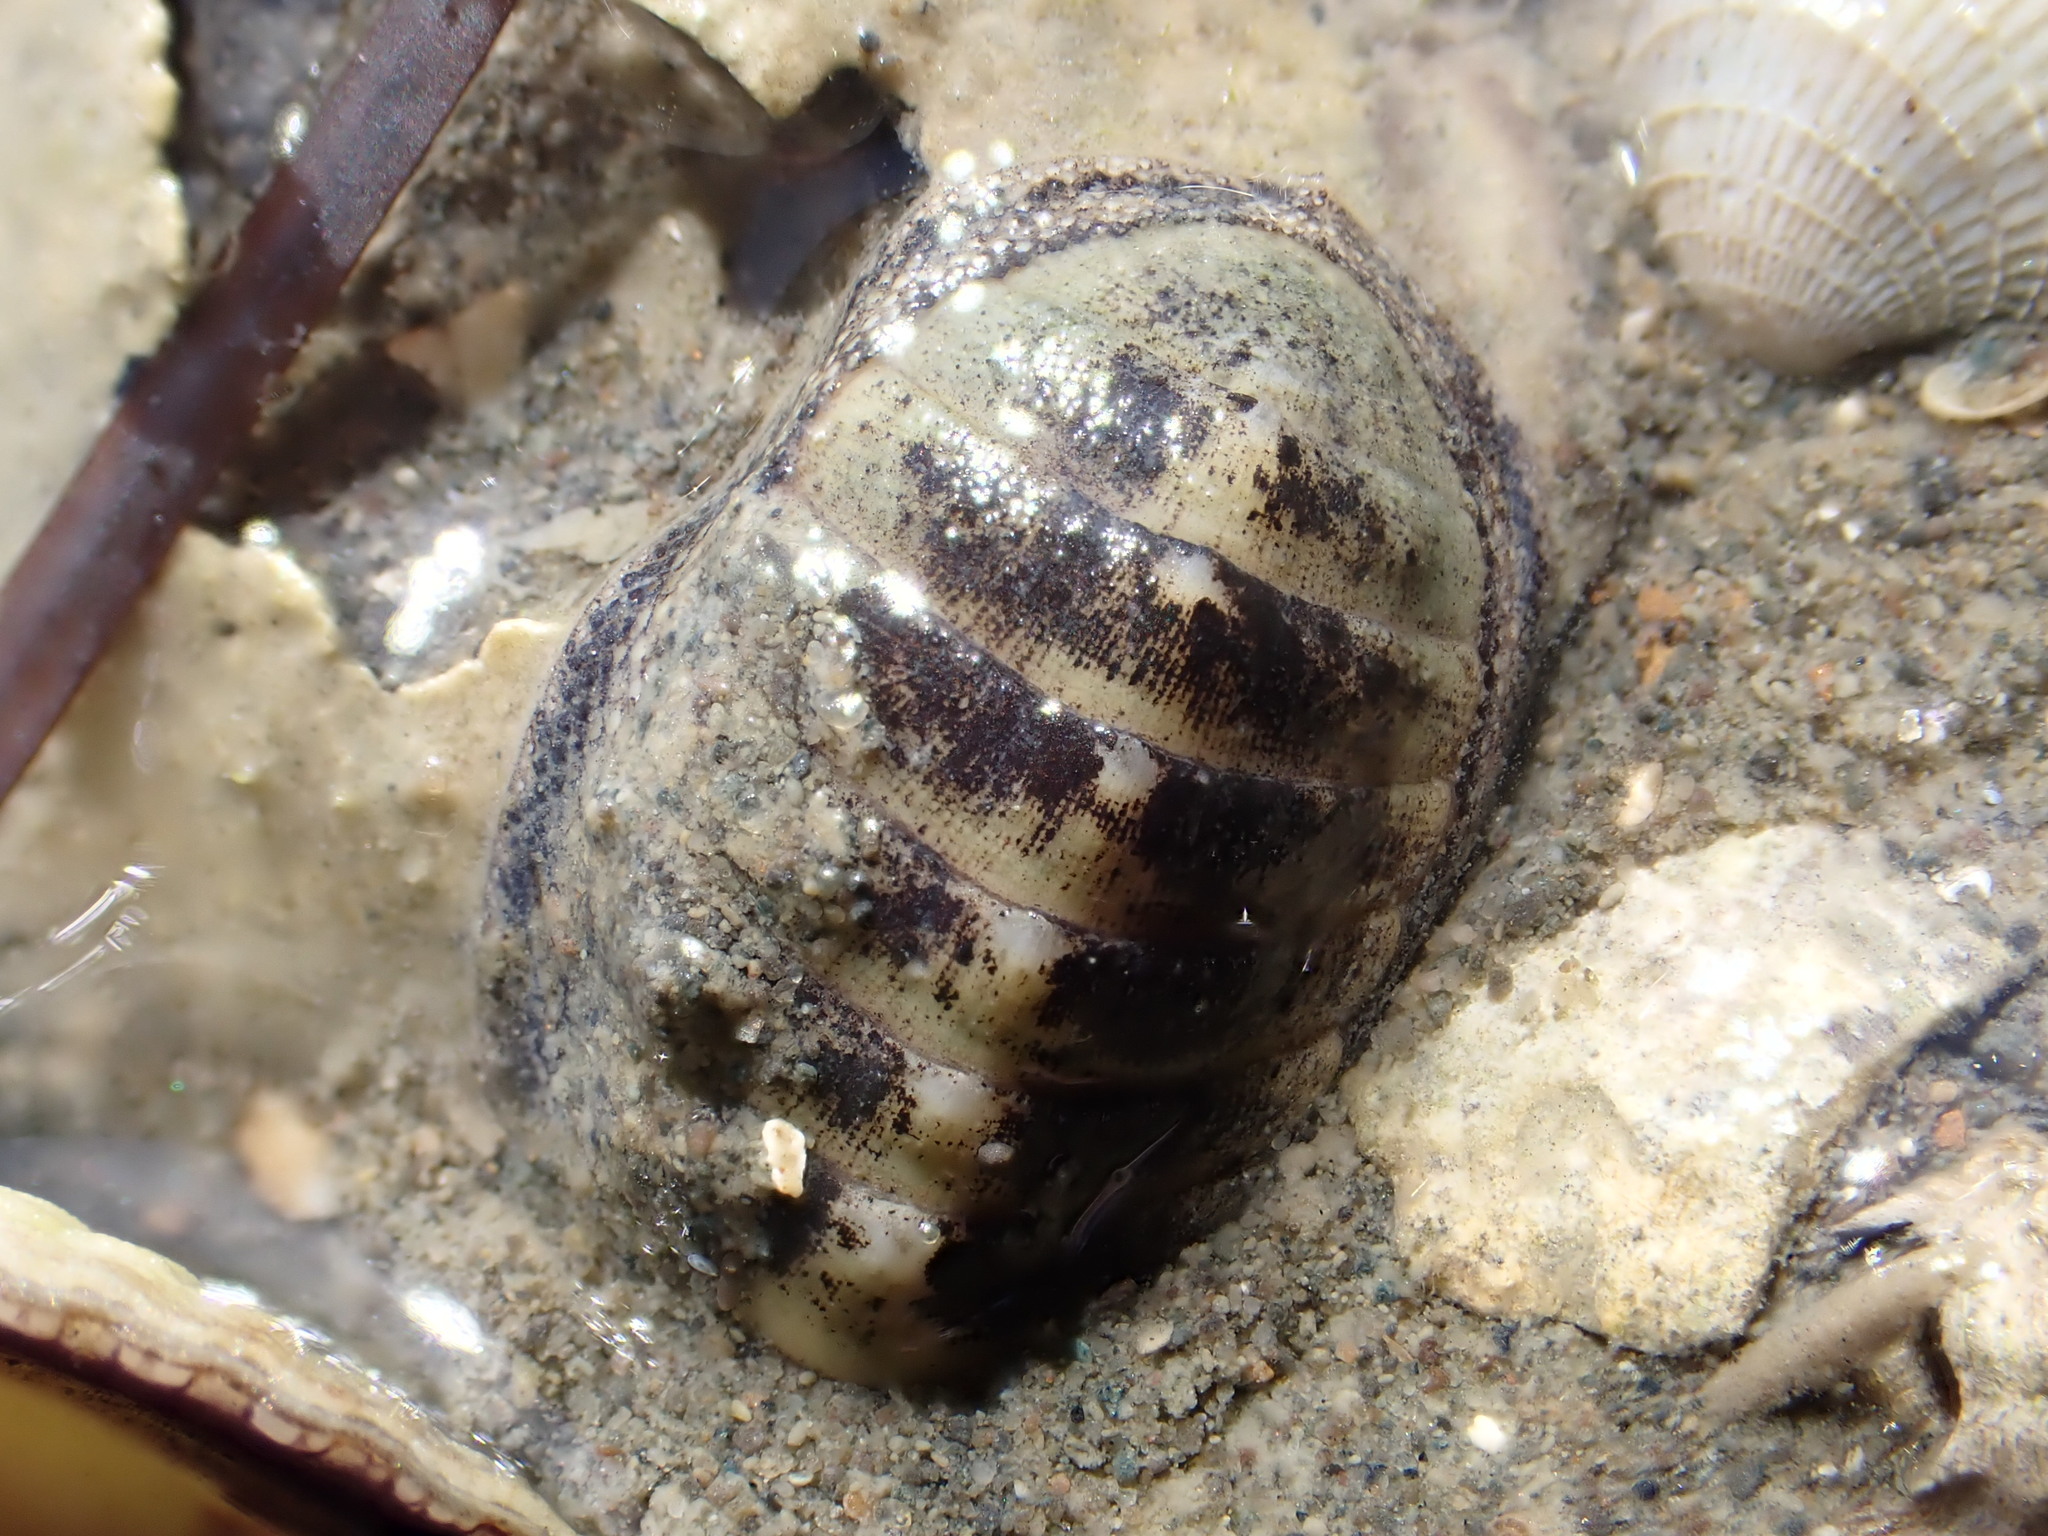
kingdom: Animalia
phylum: Mollusca
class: Polyplacophora
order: Chitonida
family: Chitonidae
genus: Chiton
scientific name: Chiton glaucus
